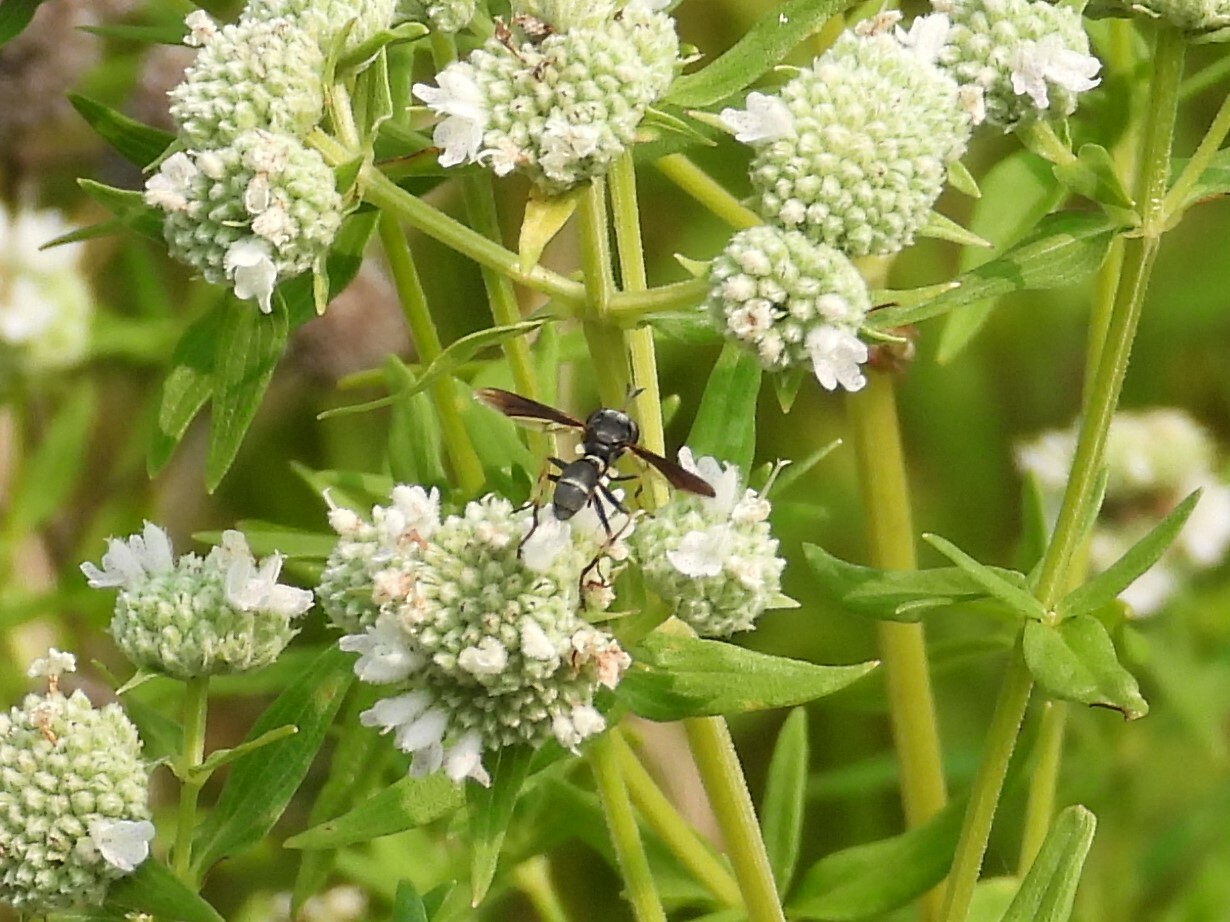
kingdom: Animalia
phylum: Arthropoda
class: Insecta
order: Diptera
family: Conopidae
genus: Physocephala
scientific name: Physocephala tibialis
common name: Common eastern physocephala
